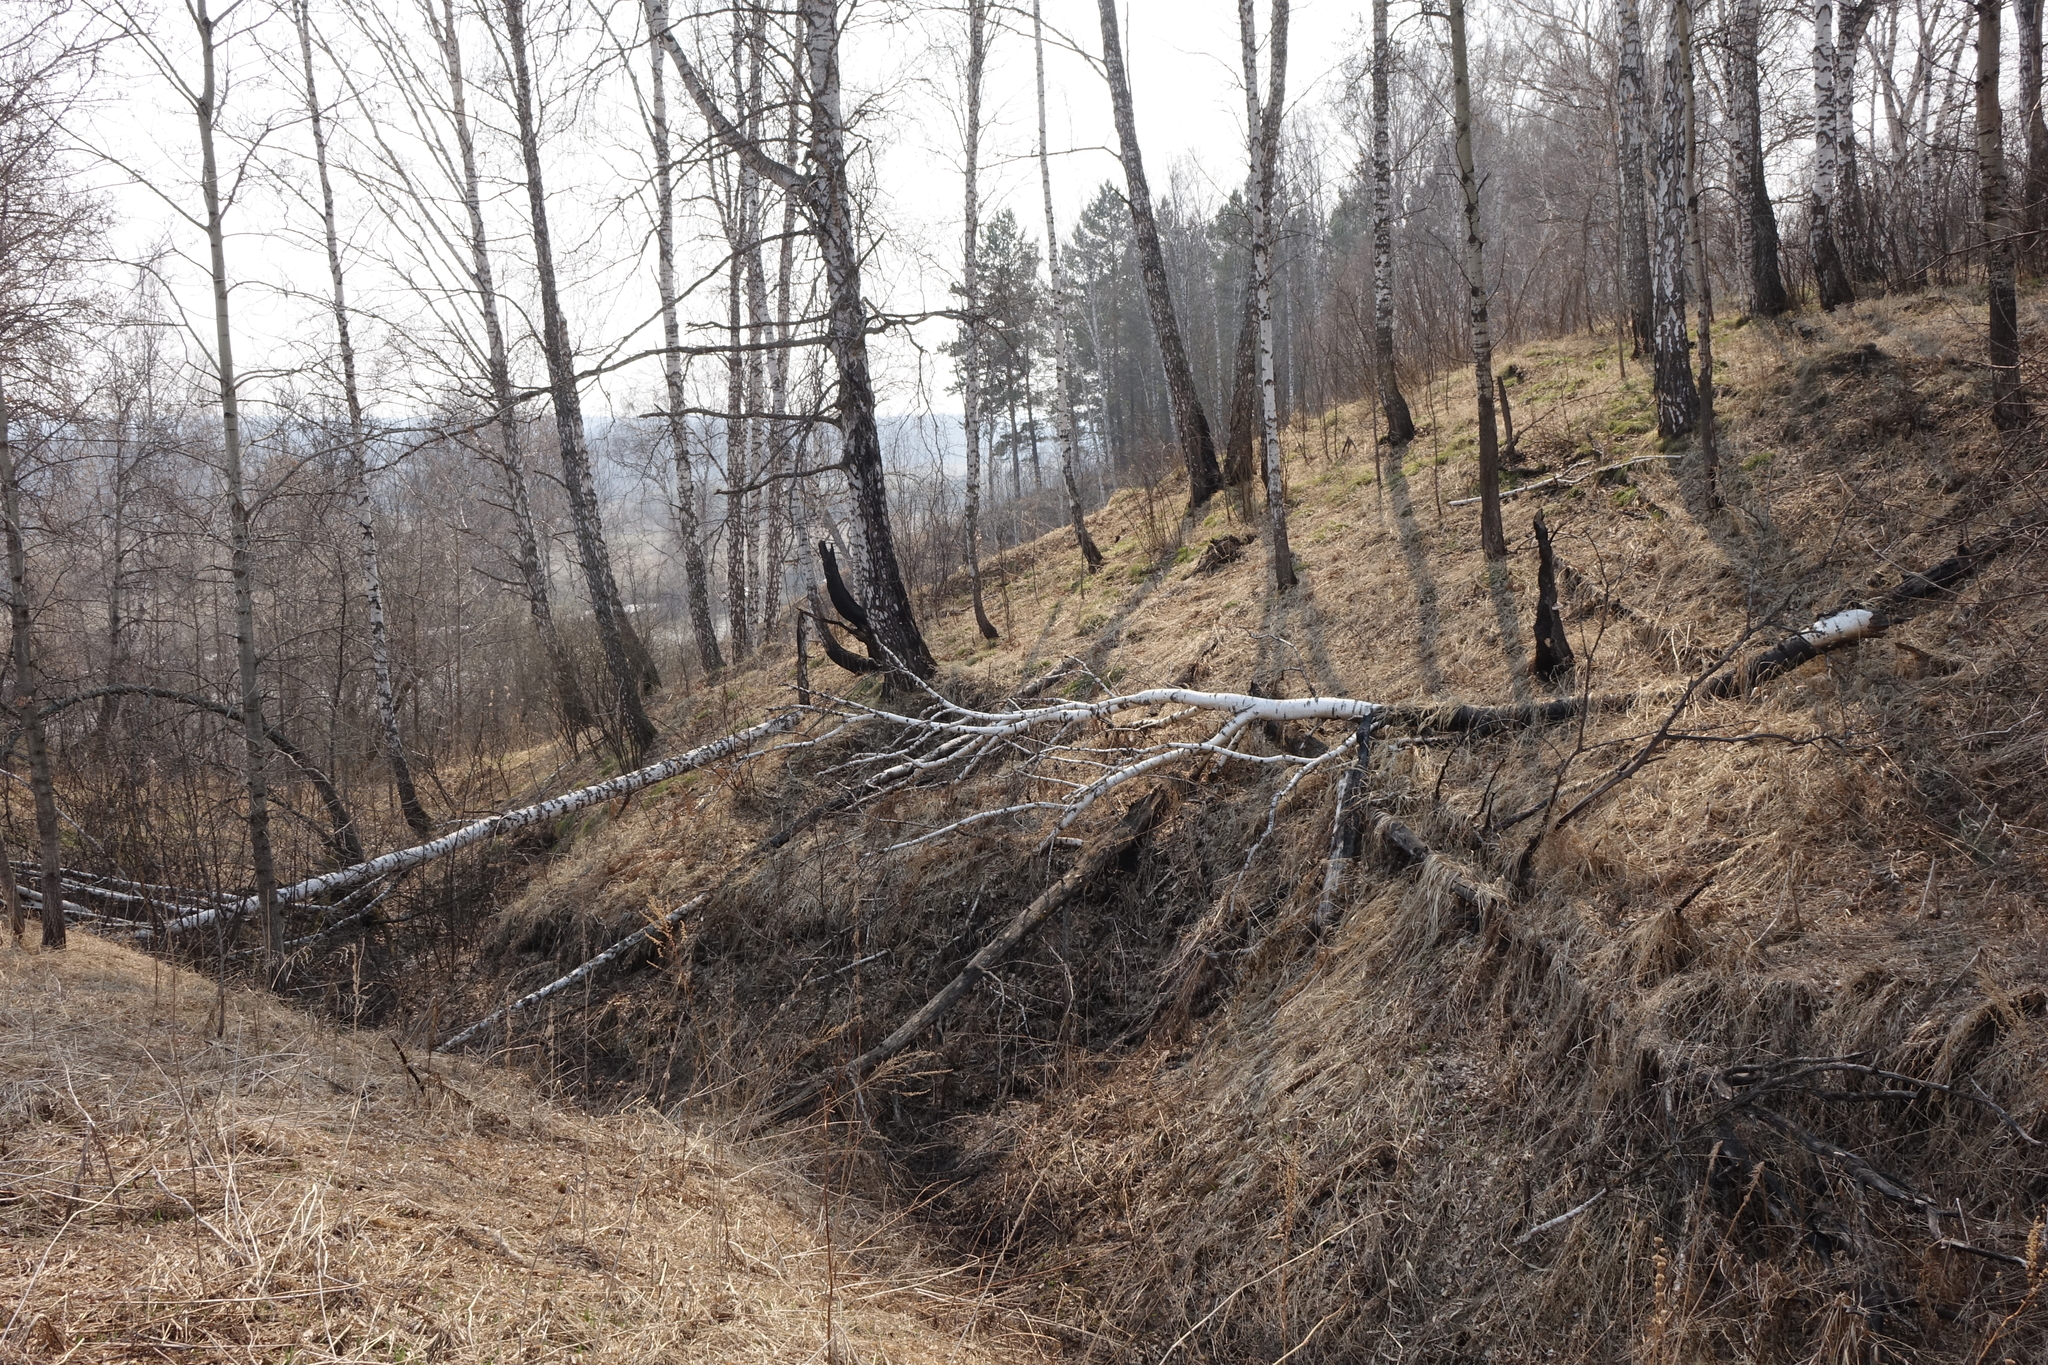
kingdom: Plantae
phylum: Tracheophyta
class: Magnoliopsida
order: Fagales
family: Betulaceae
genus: Betula
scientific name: Betula pendula
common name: Silver birch
